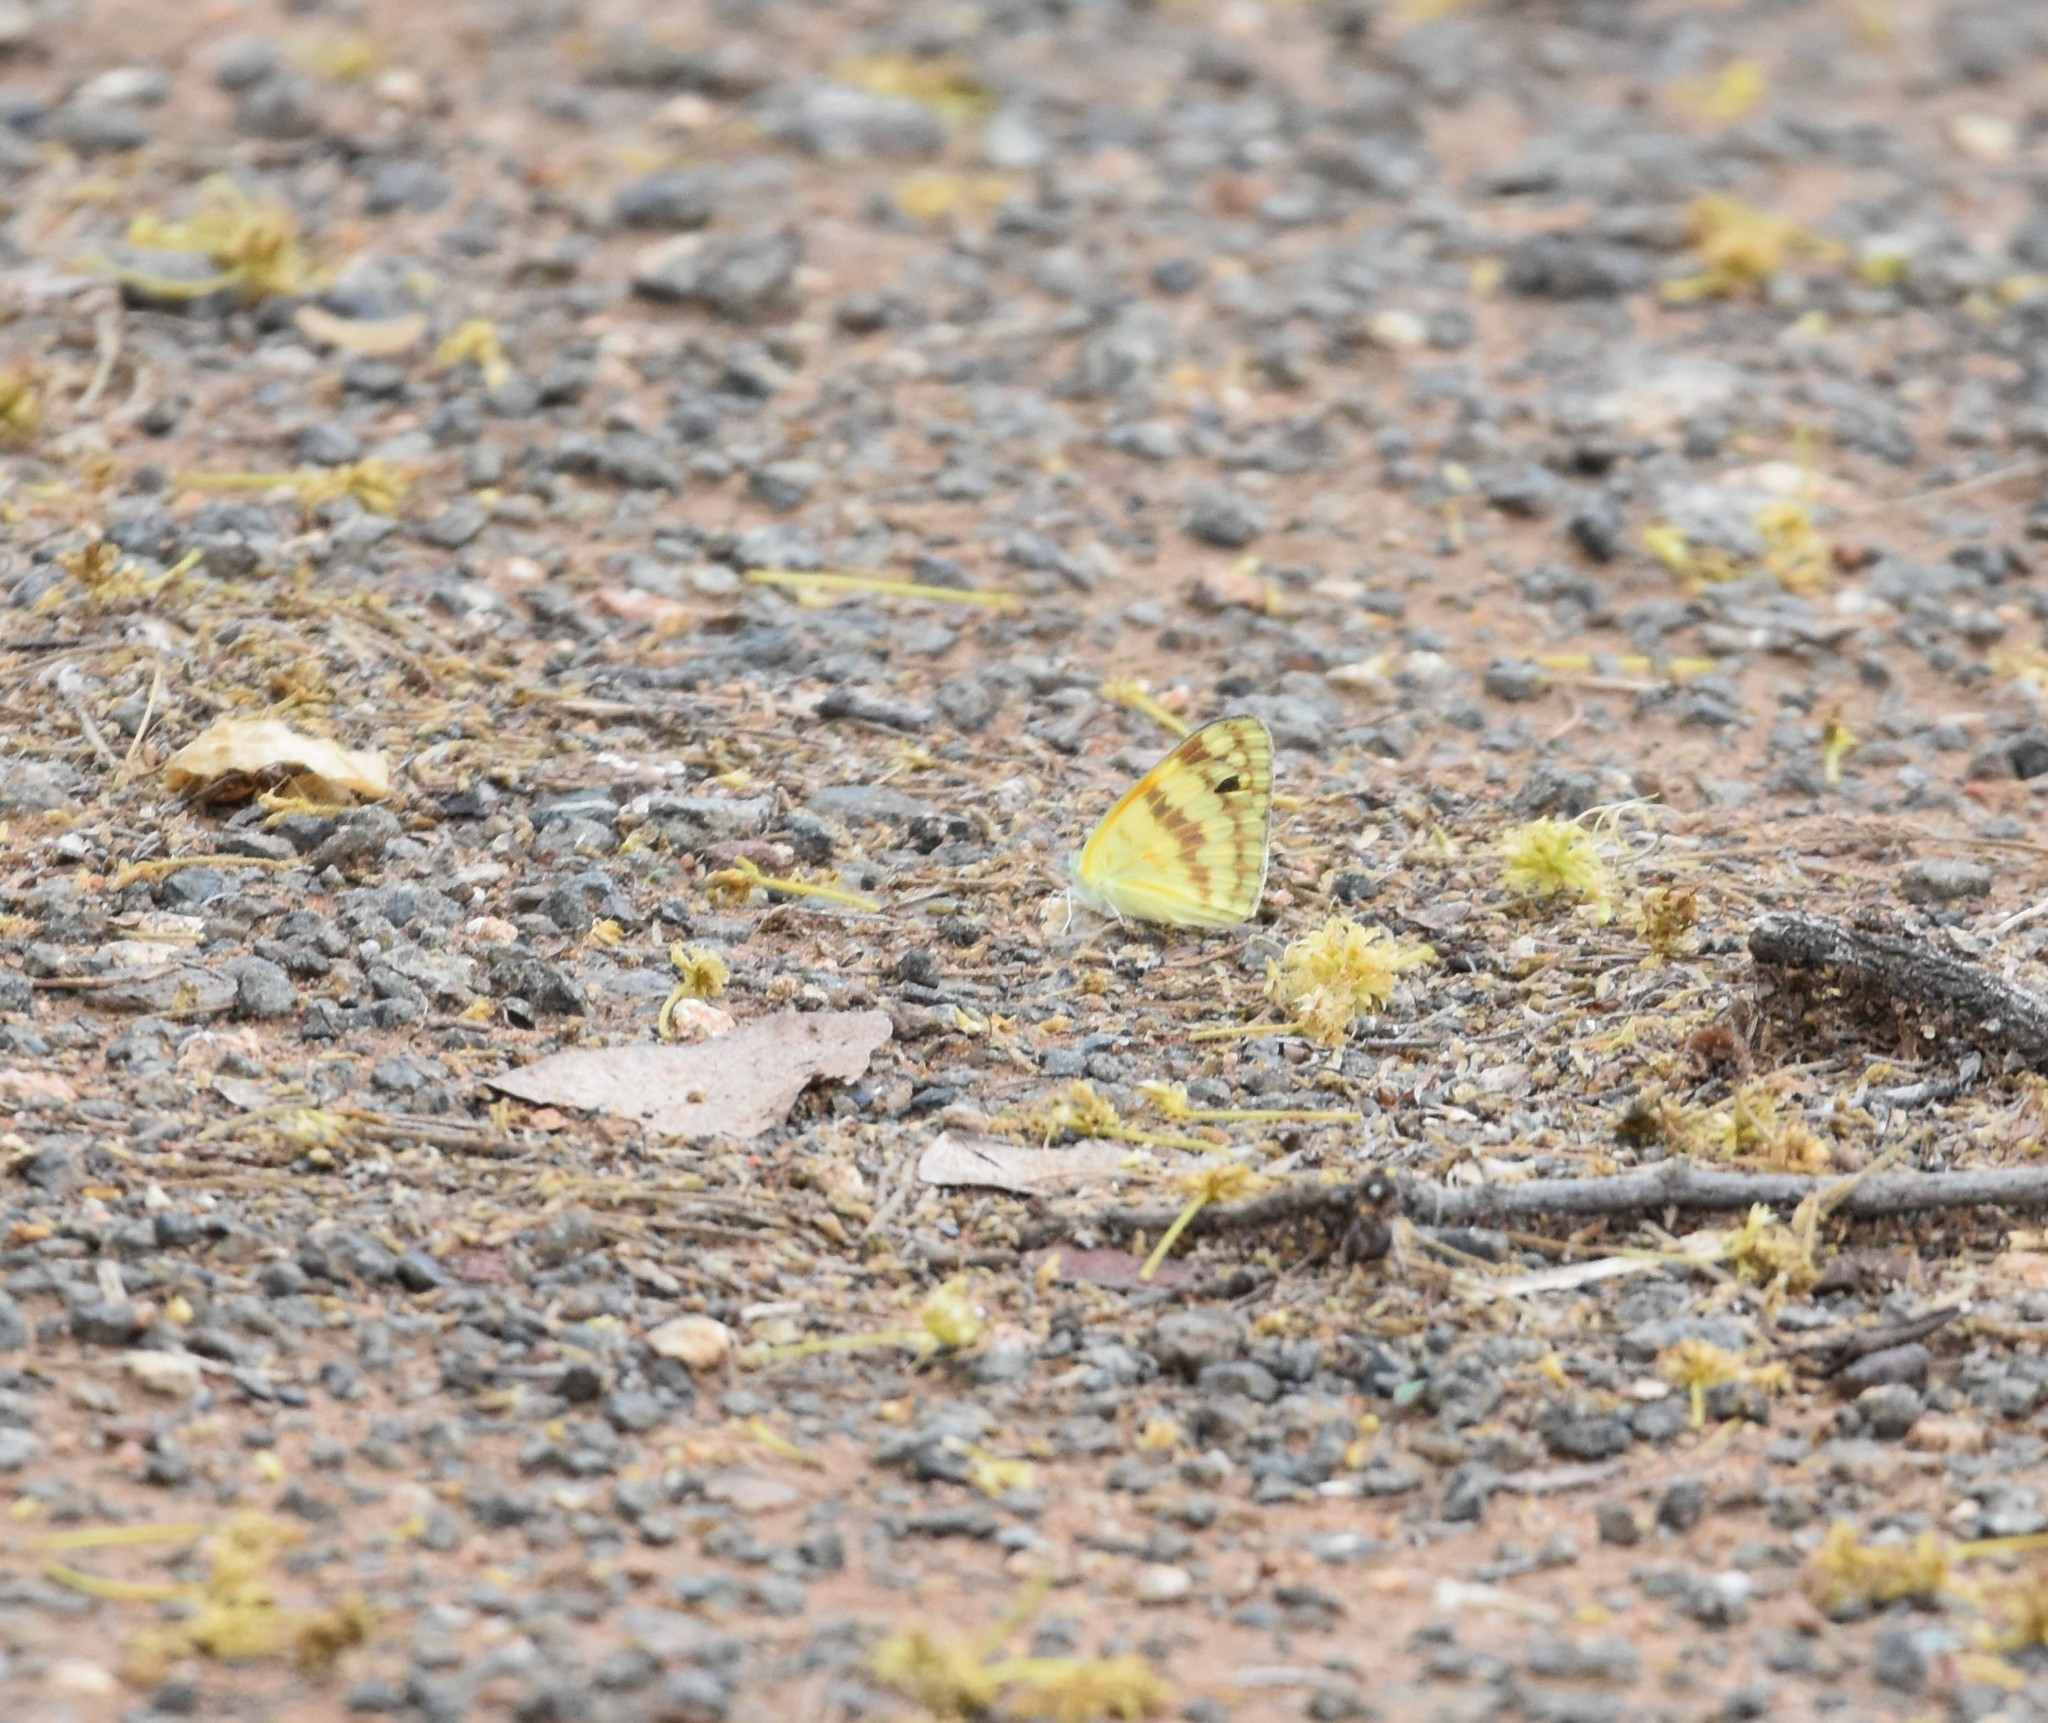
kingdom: Animalia
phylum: Arthropoda
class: Insecta
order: Lepidoptera
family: Pieridae
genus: Colotis
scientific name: Colotis vesta
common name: Veined golden arab
